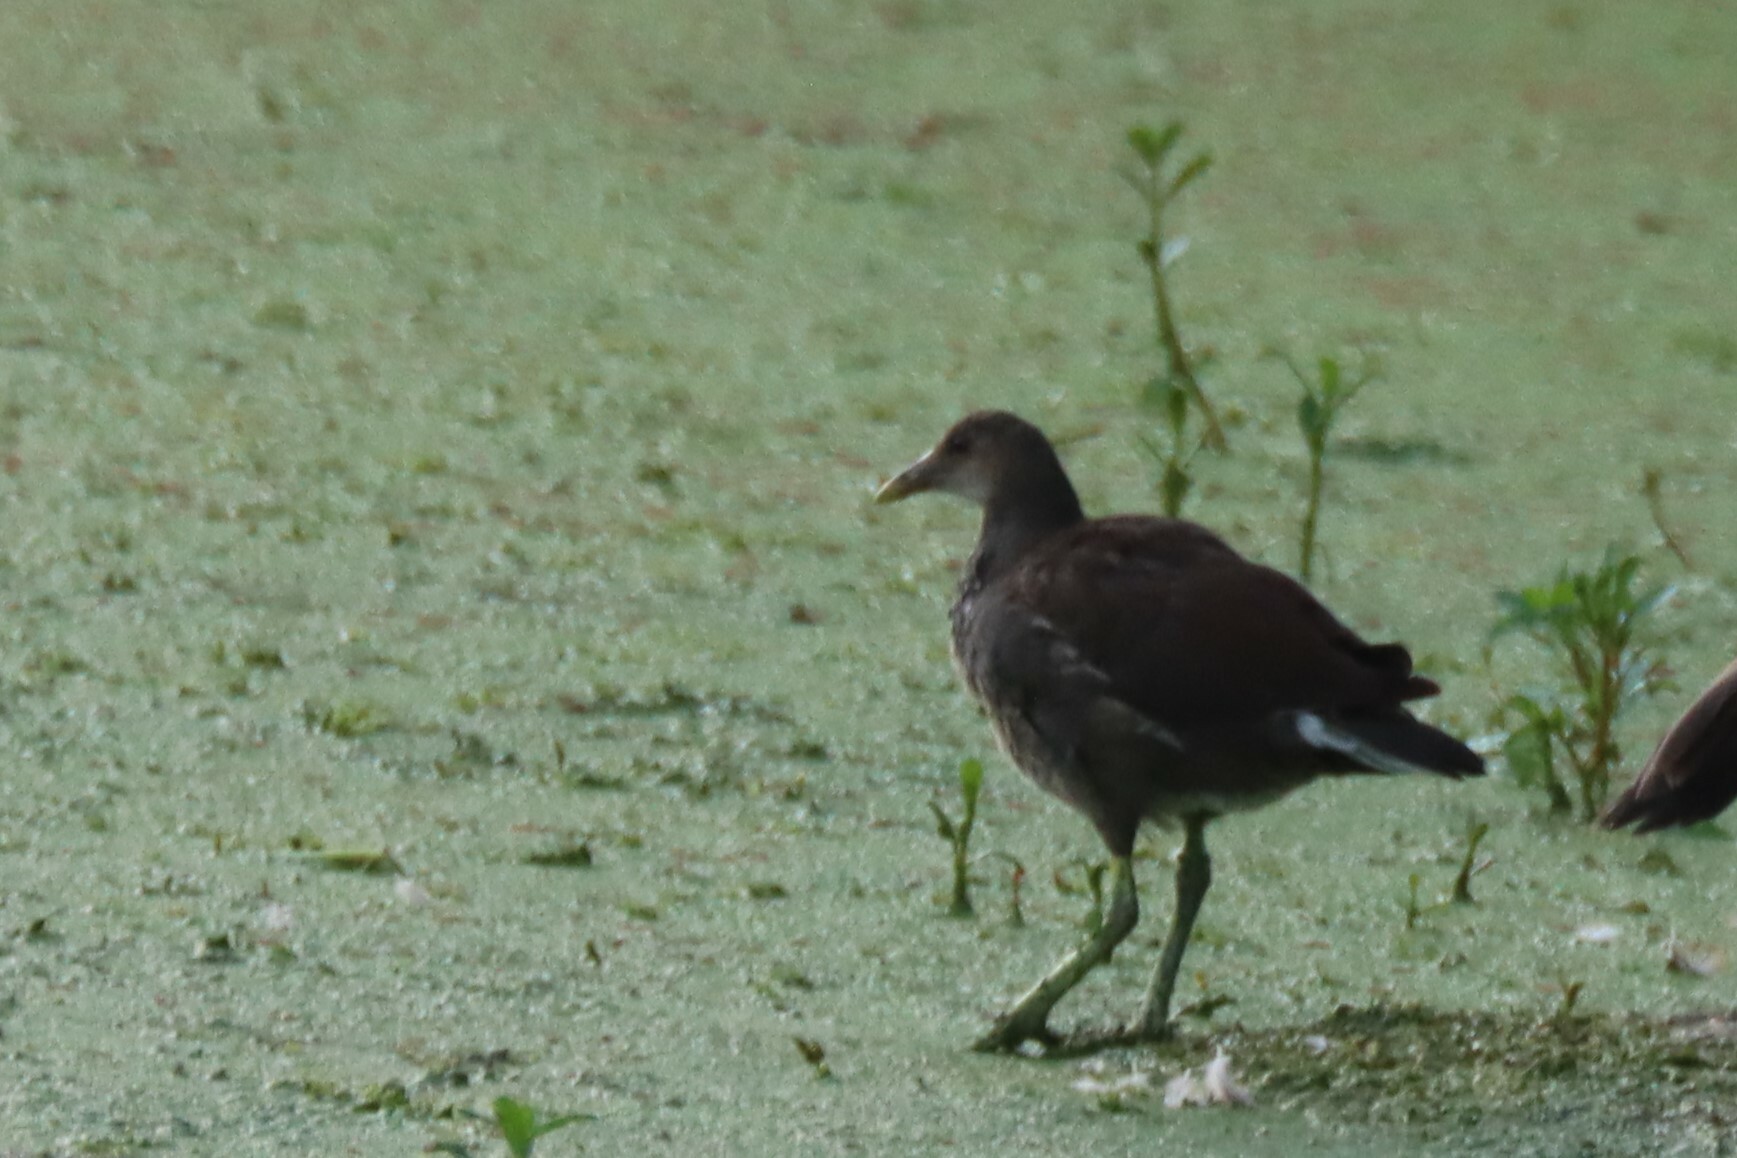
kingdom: Animalia
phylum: Chordata
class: Aves
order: Gruiformes
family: Rallidae
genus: Gallinula
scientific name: Gallinula chloropus
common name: Common moorhen
